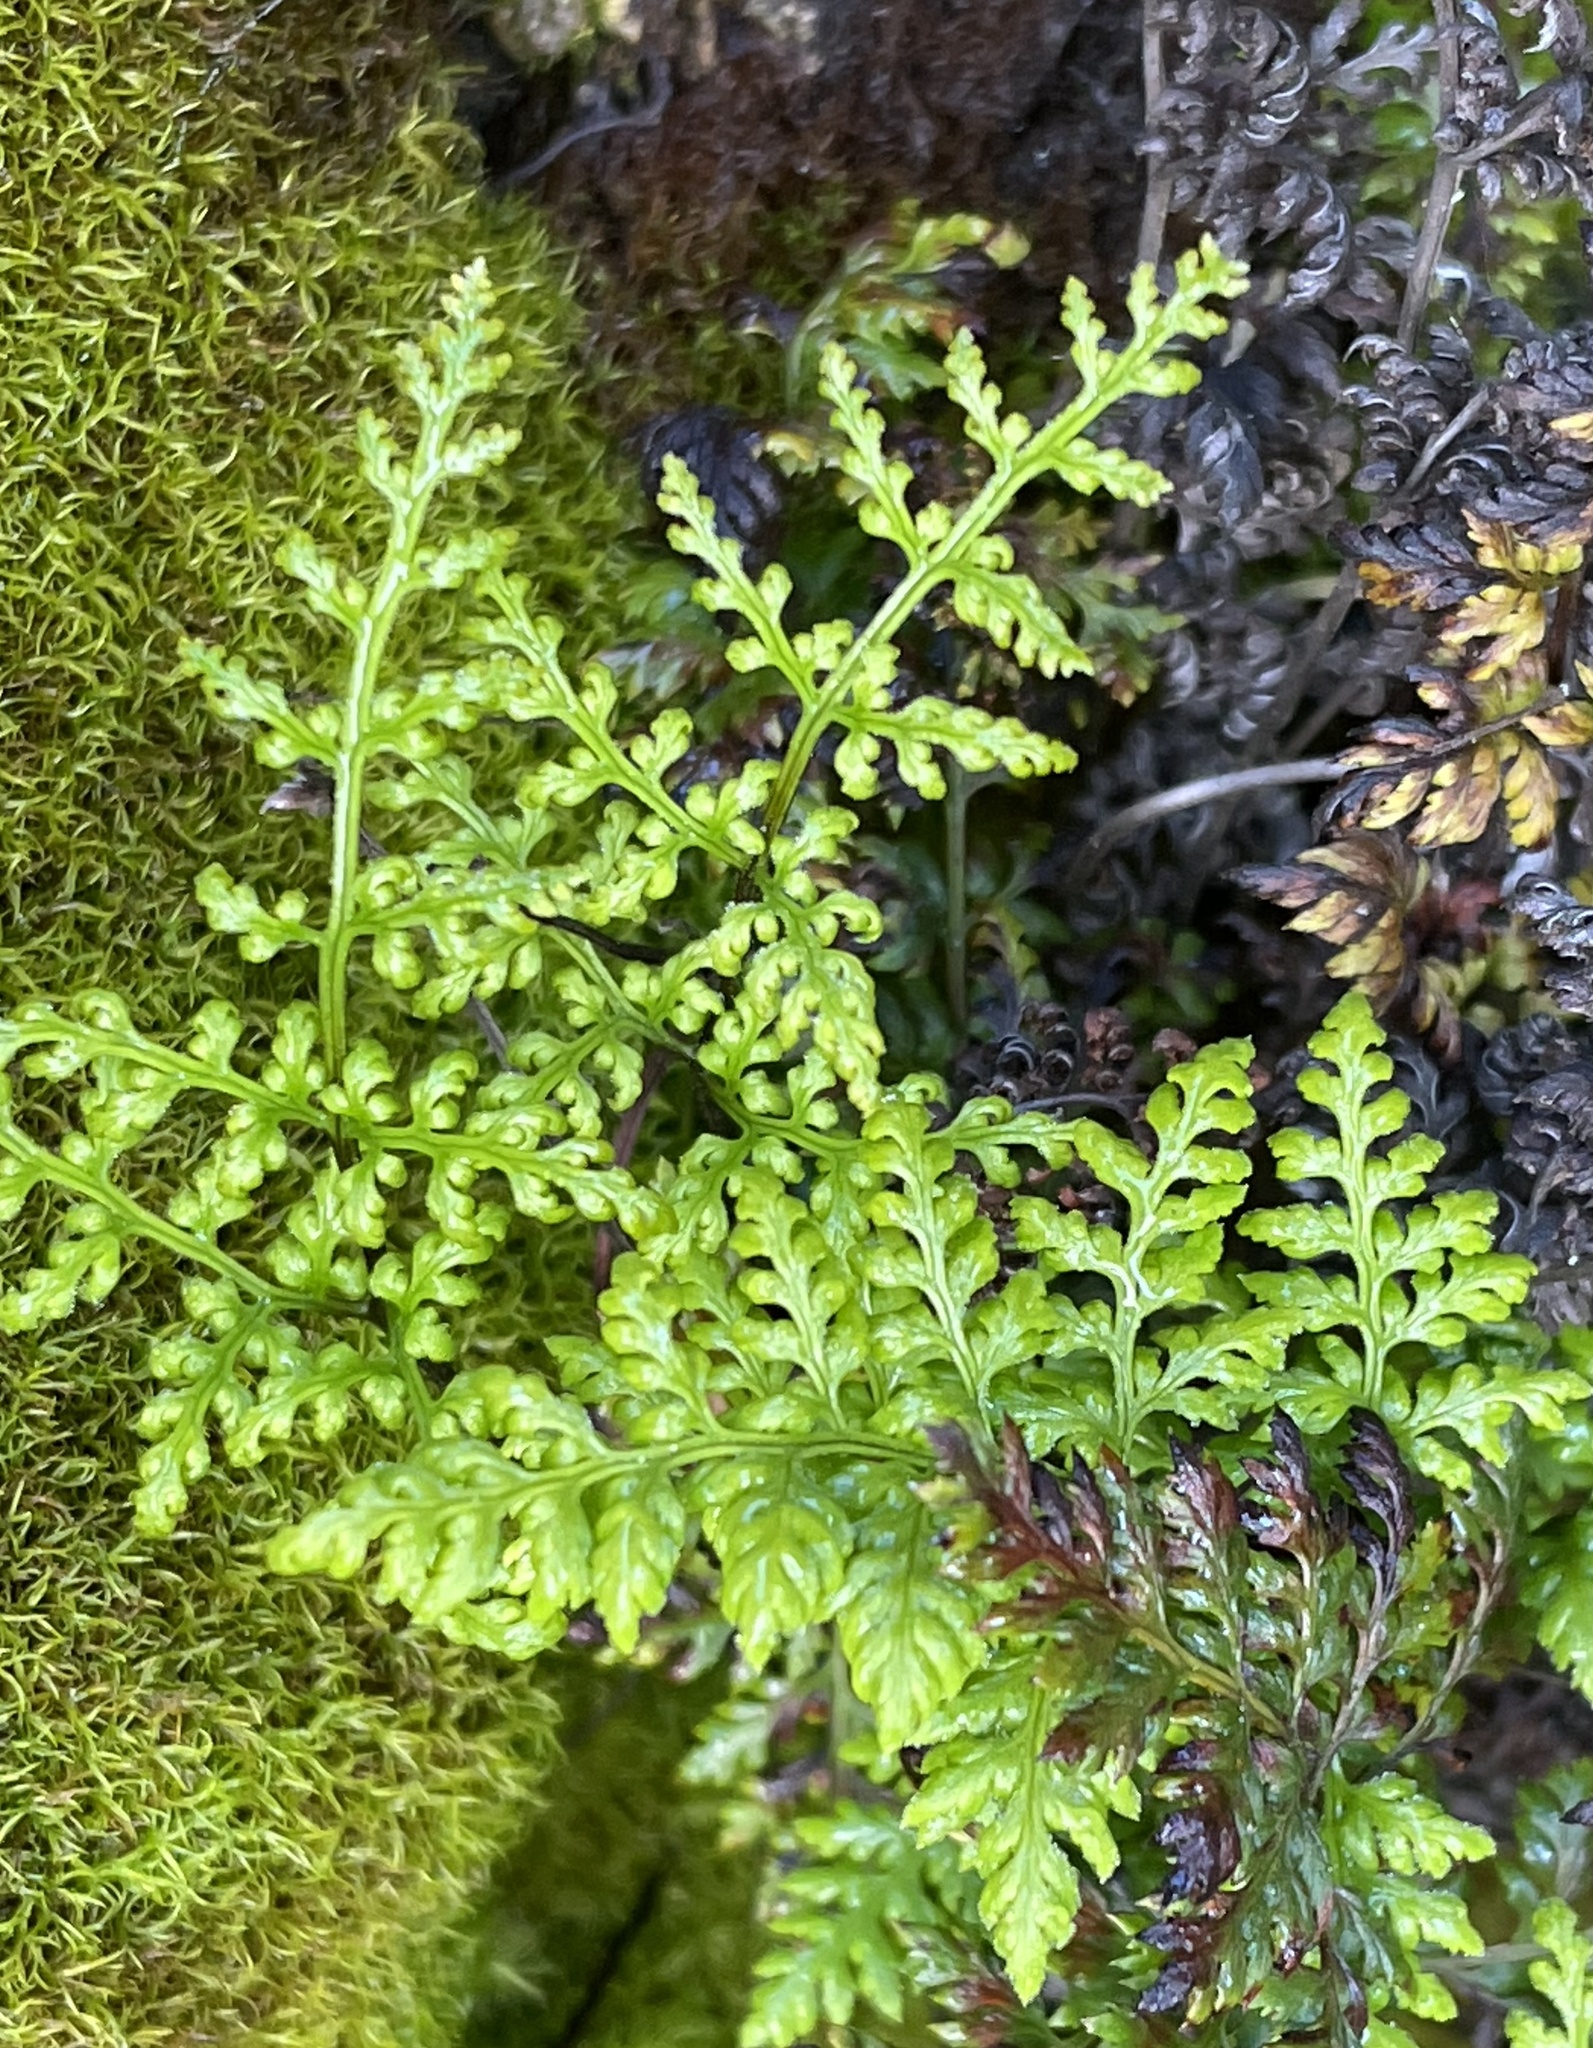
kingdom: Plantae
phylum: Tracheophyta
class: Polypodiopsida
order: Polypodiales
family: Pteridaceae
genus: Aspidotis
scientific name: Aspidotis californica
